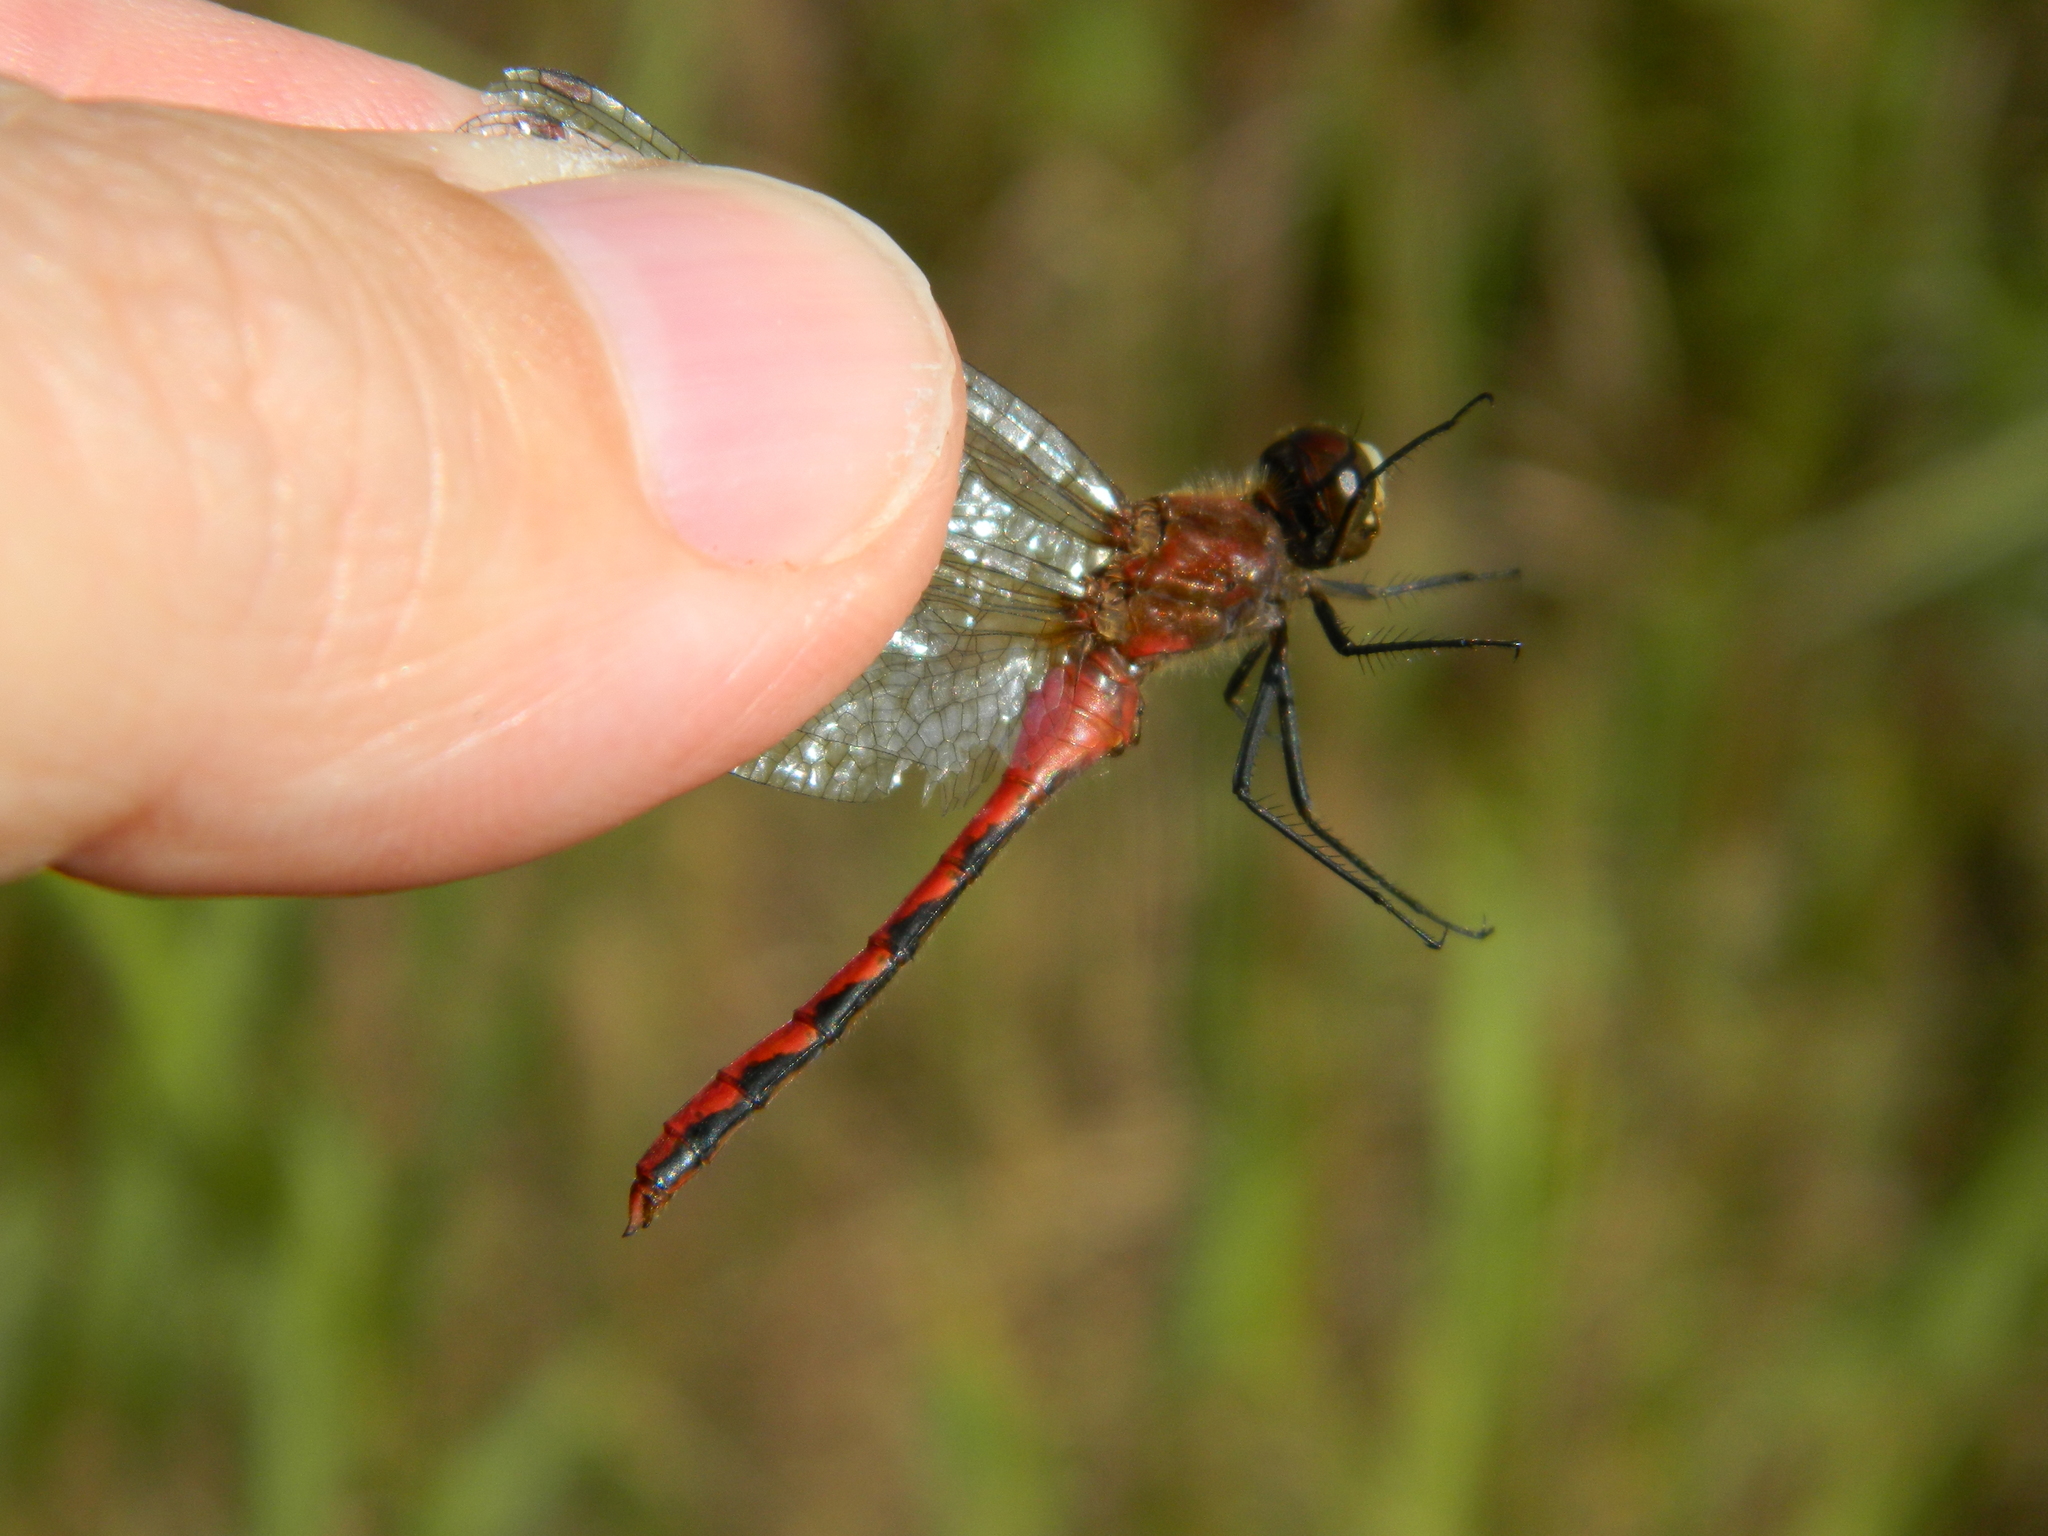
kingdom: Animalia
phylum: Arthropoda
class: Insecta
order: Odonata
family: Libellulidae
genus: Sympetrum
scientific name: Sympetrum obtrusum
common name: White-faced meadowhawk
